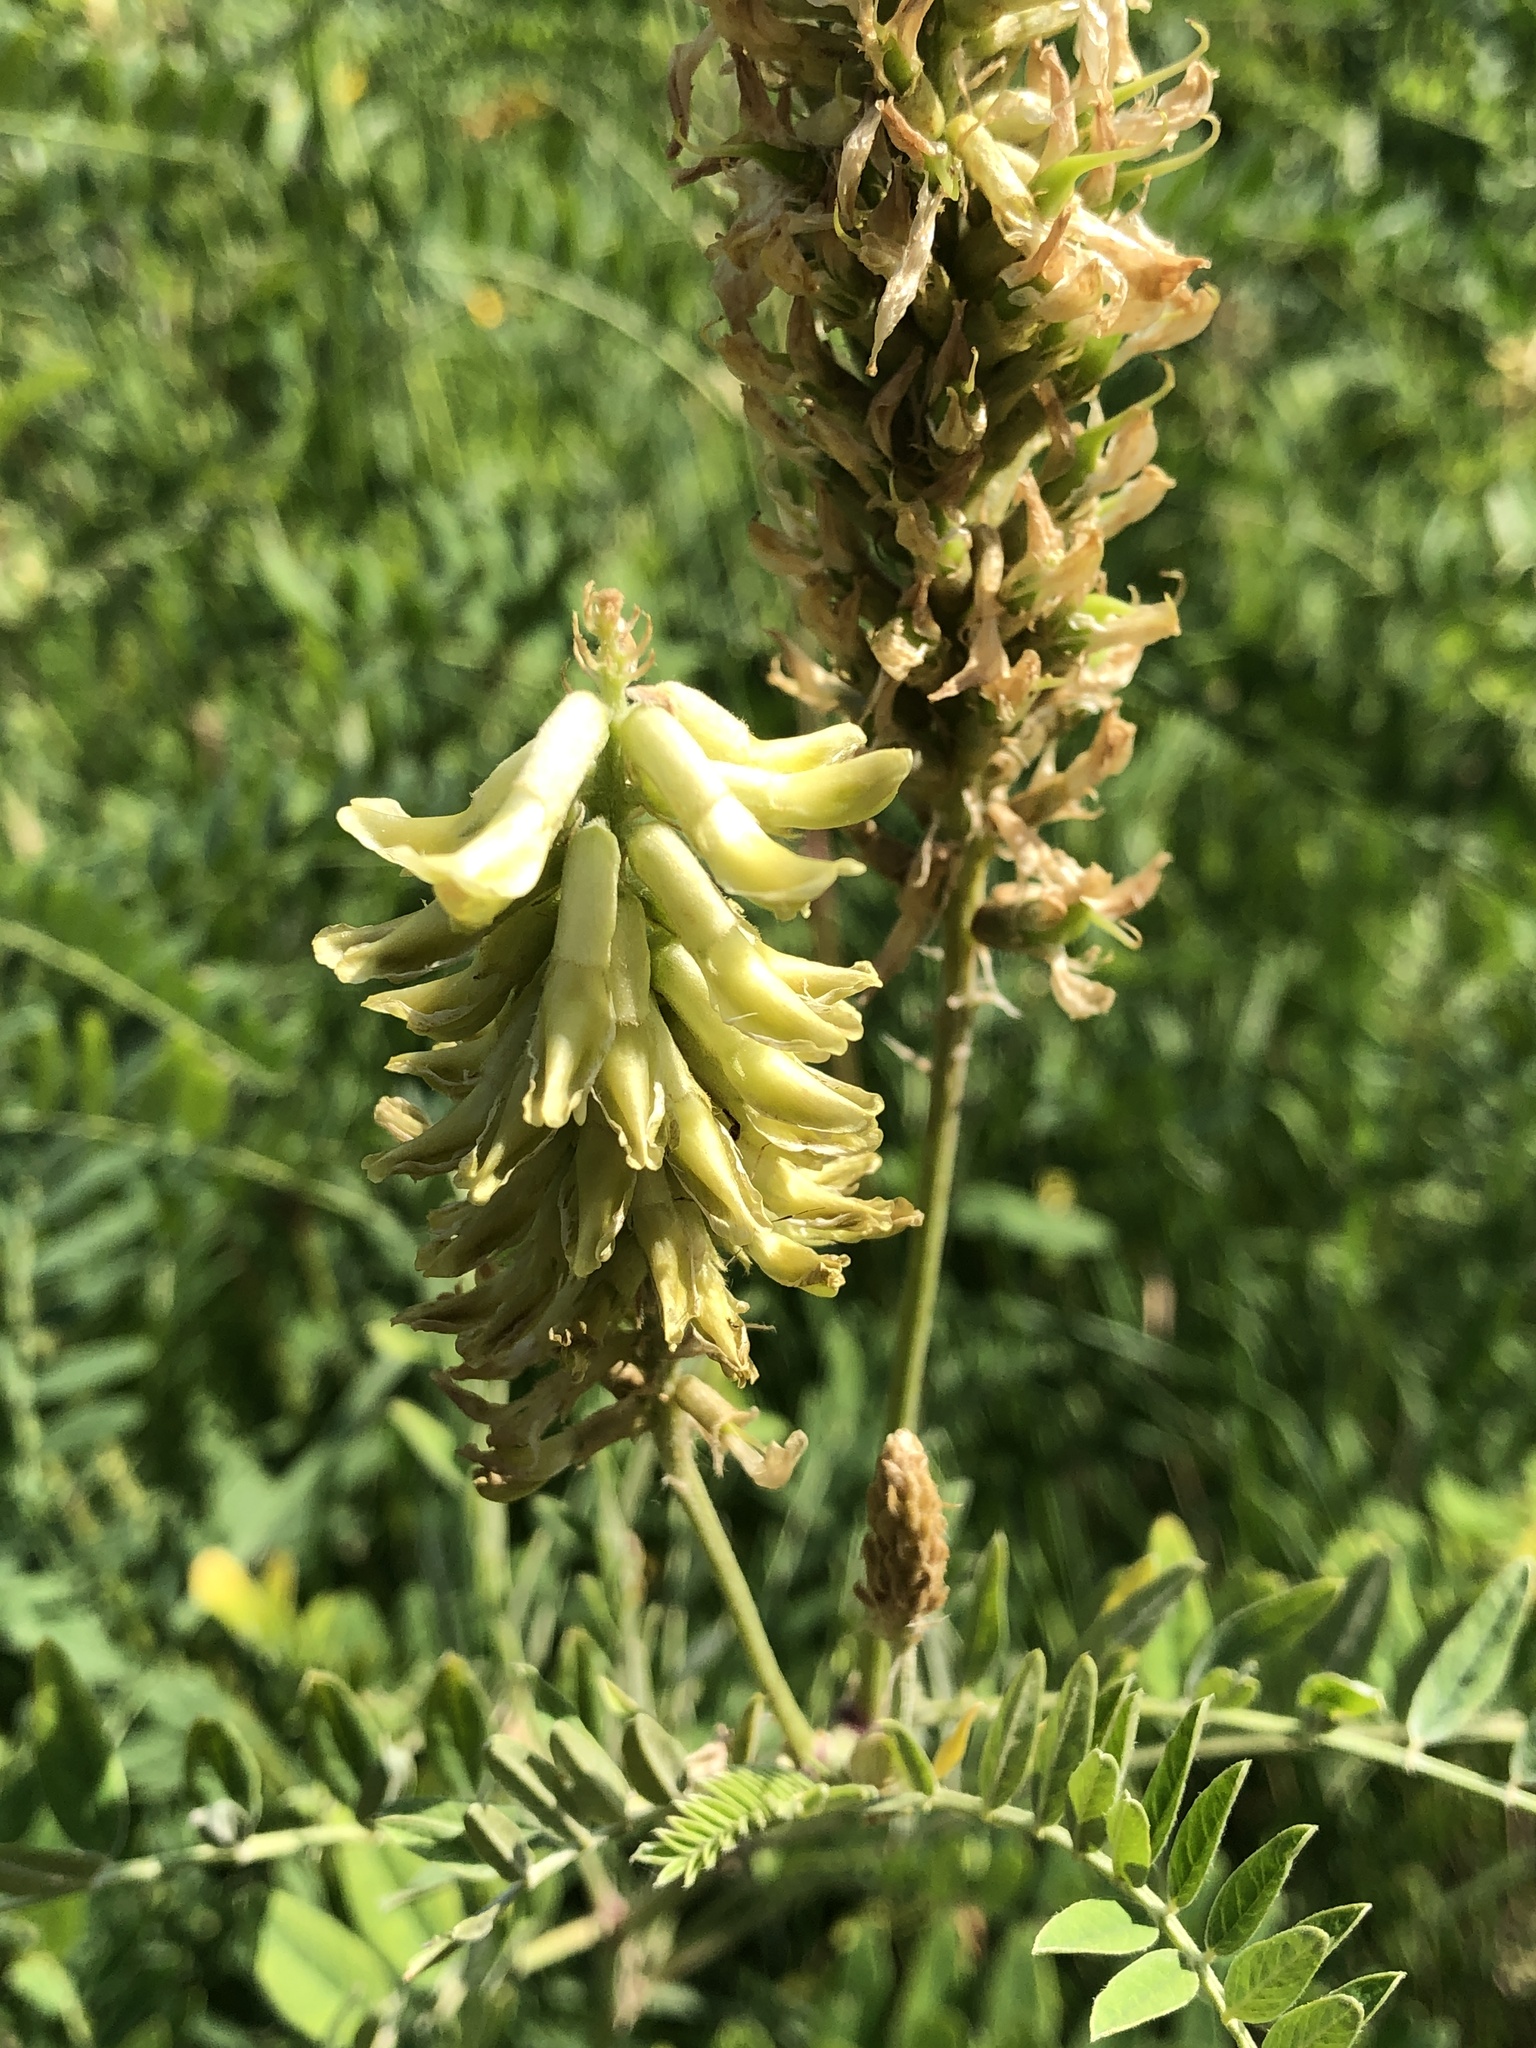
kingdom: Plantae
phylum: Tracheophyta
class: Magnoliopsida
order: Fabales
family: Fabaceae
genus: Astragalus
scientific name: Astragalus canadensis
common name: Canada milk-vetch
